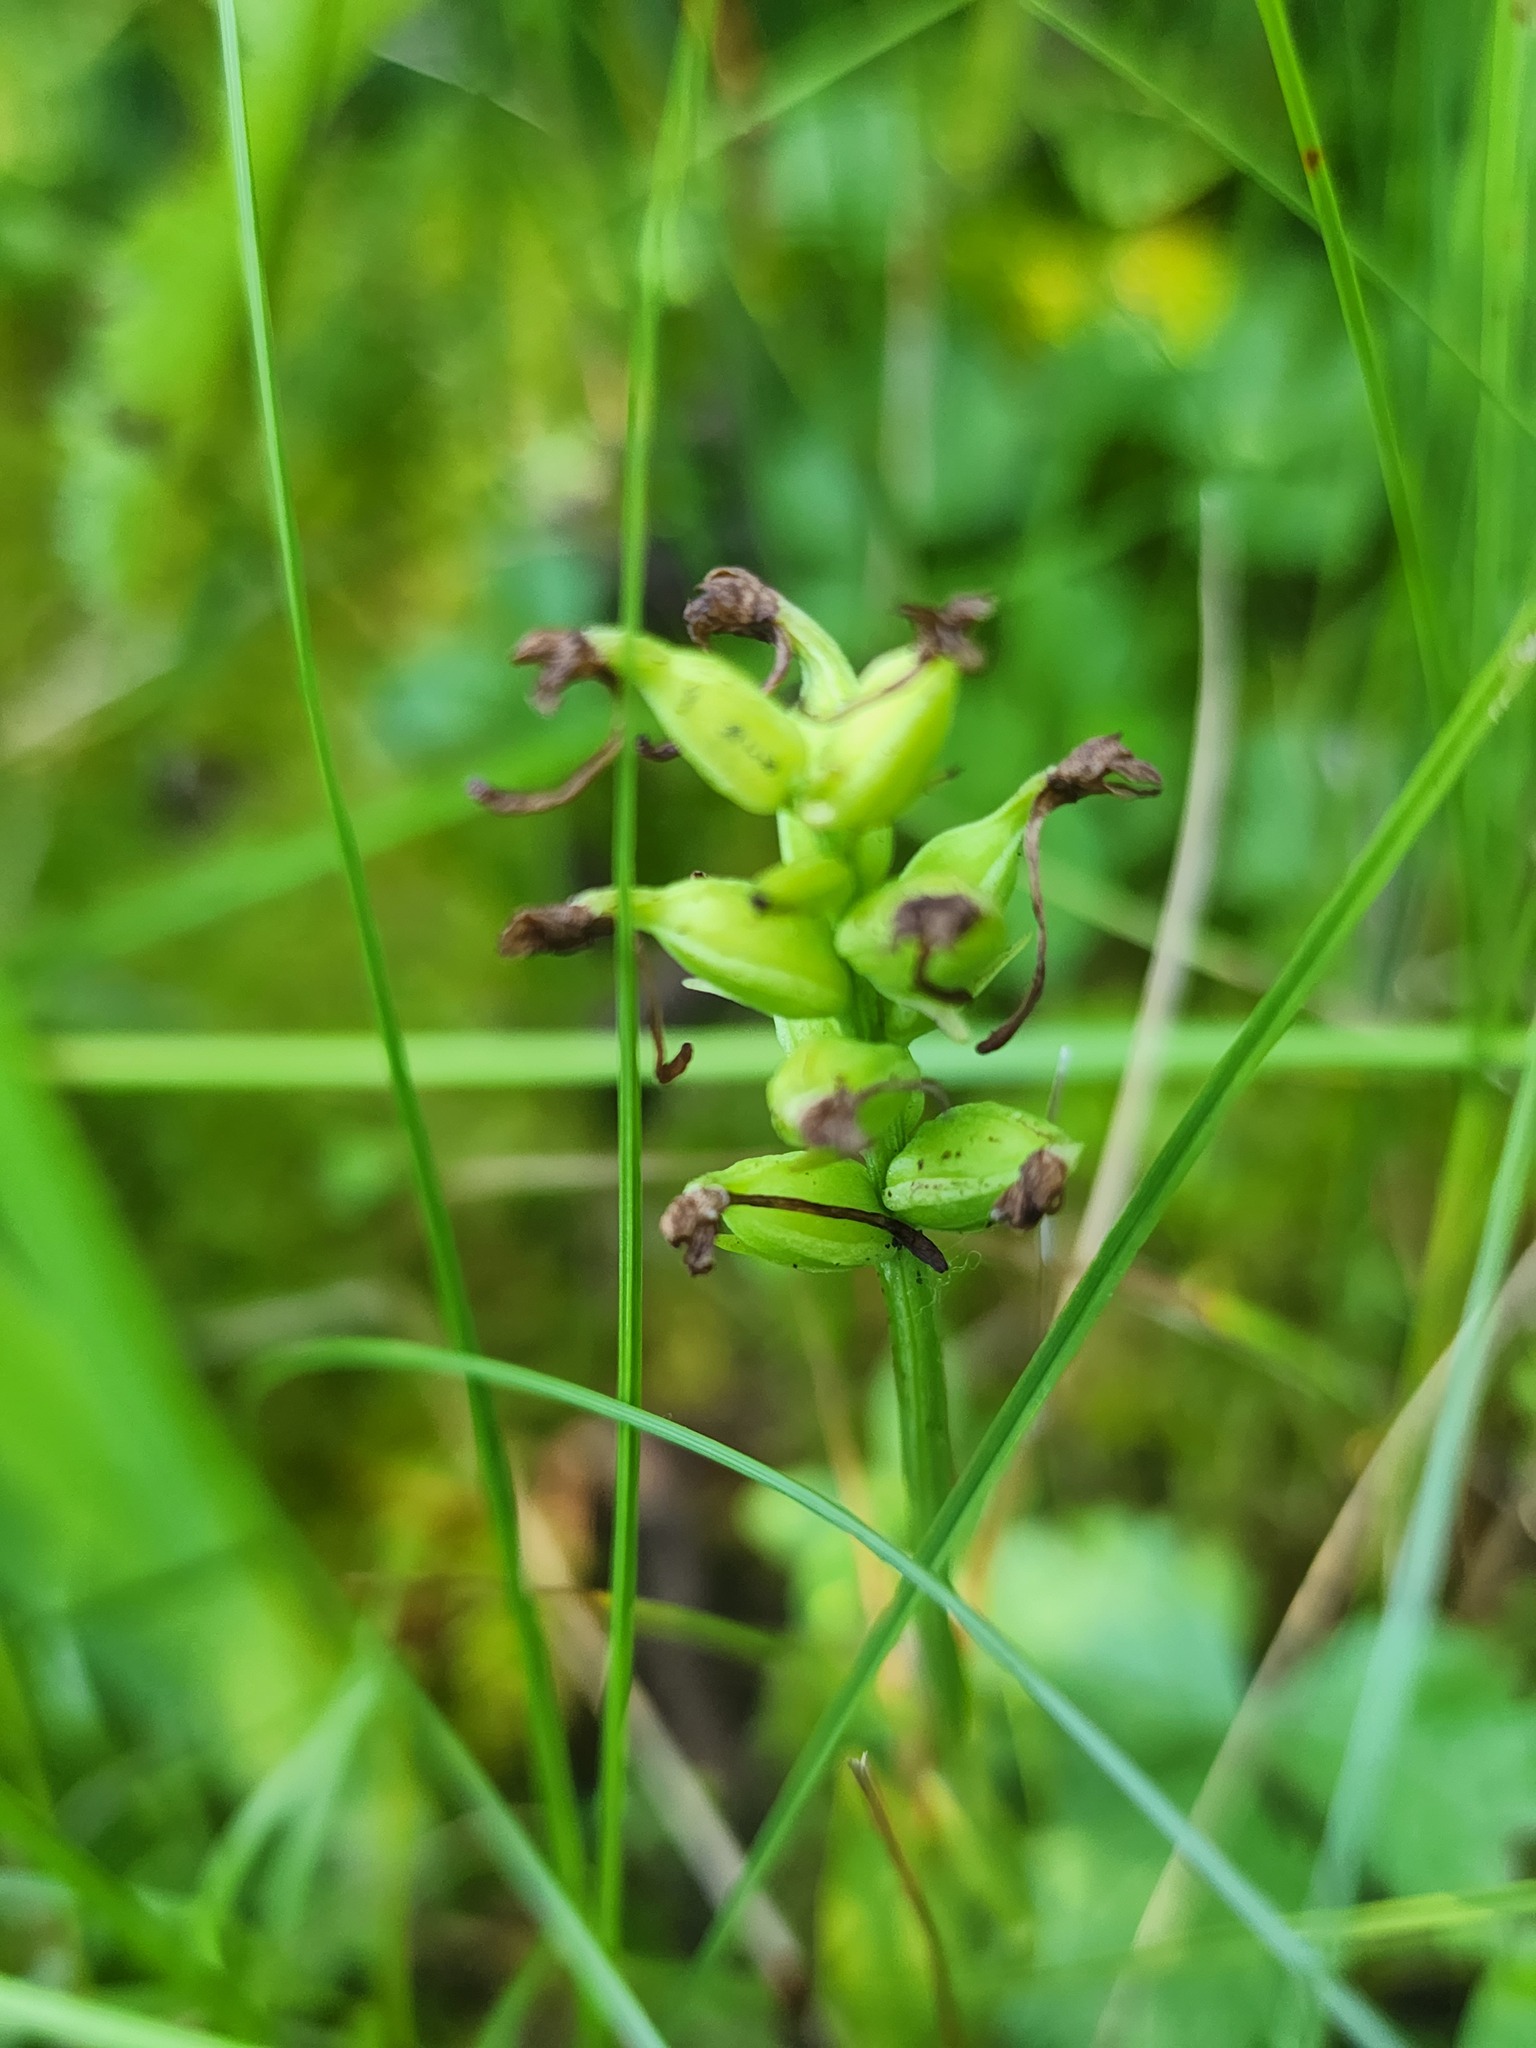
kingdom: Plantae
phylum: Tracheophyta
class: Liliopsida
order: Asparagales
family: Orchidaceae
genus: Platanthera
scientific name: Platanthera clavellata
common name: Club-spur orchid
